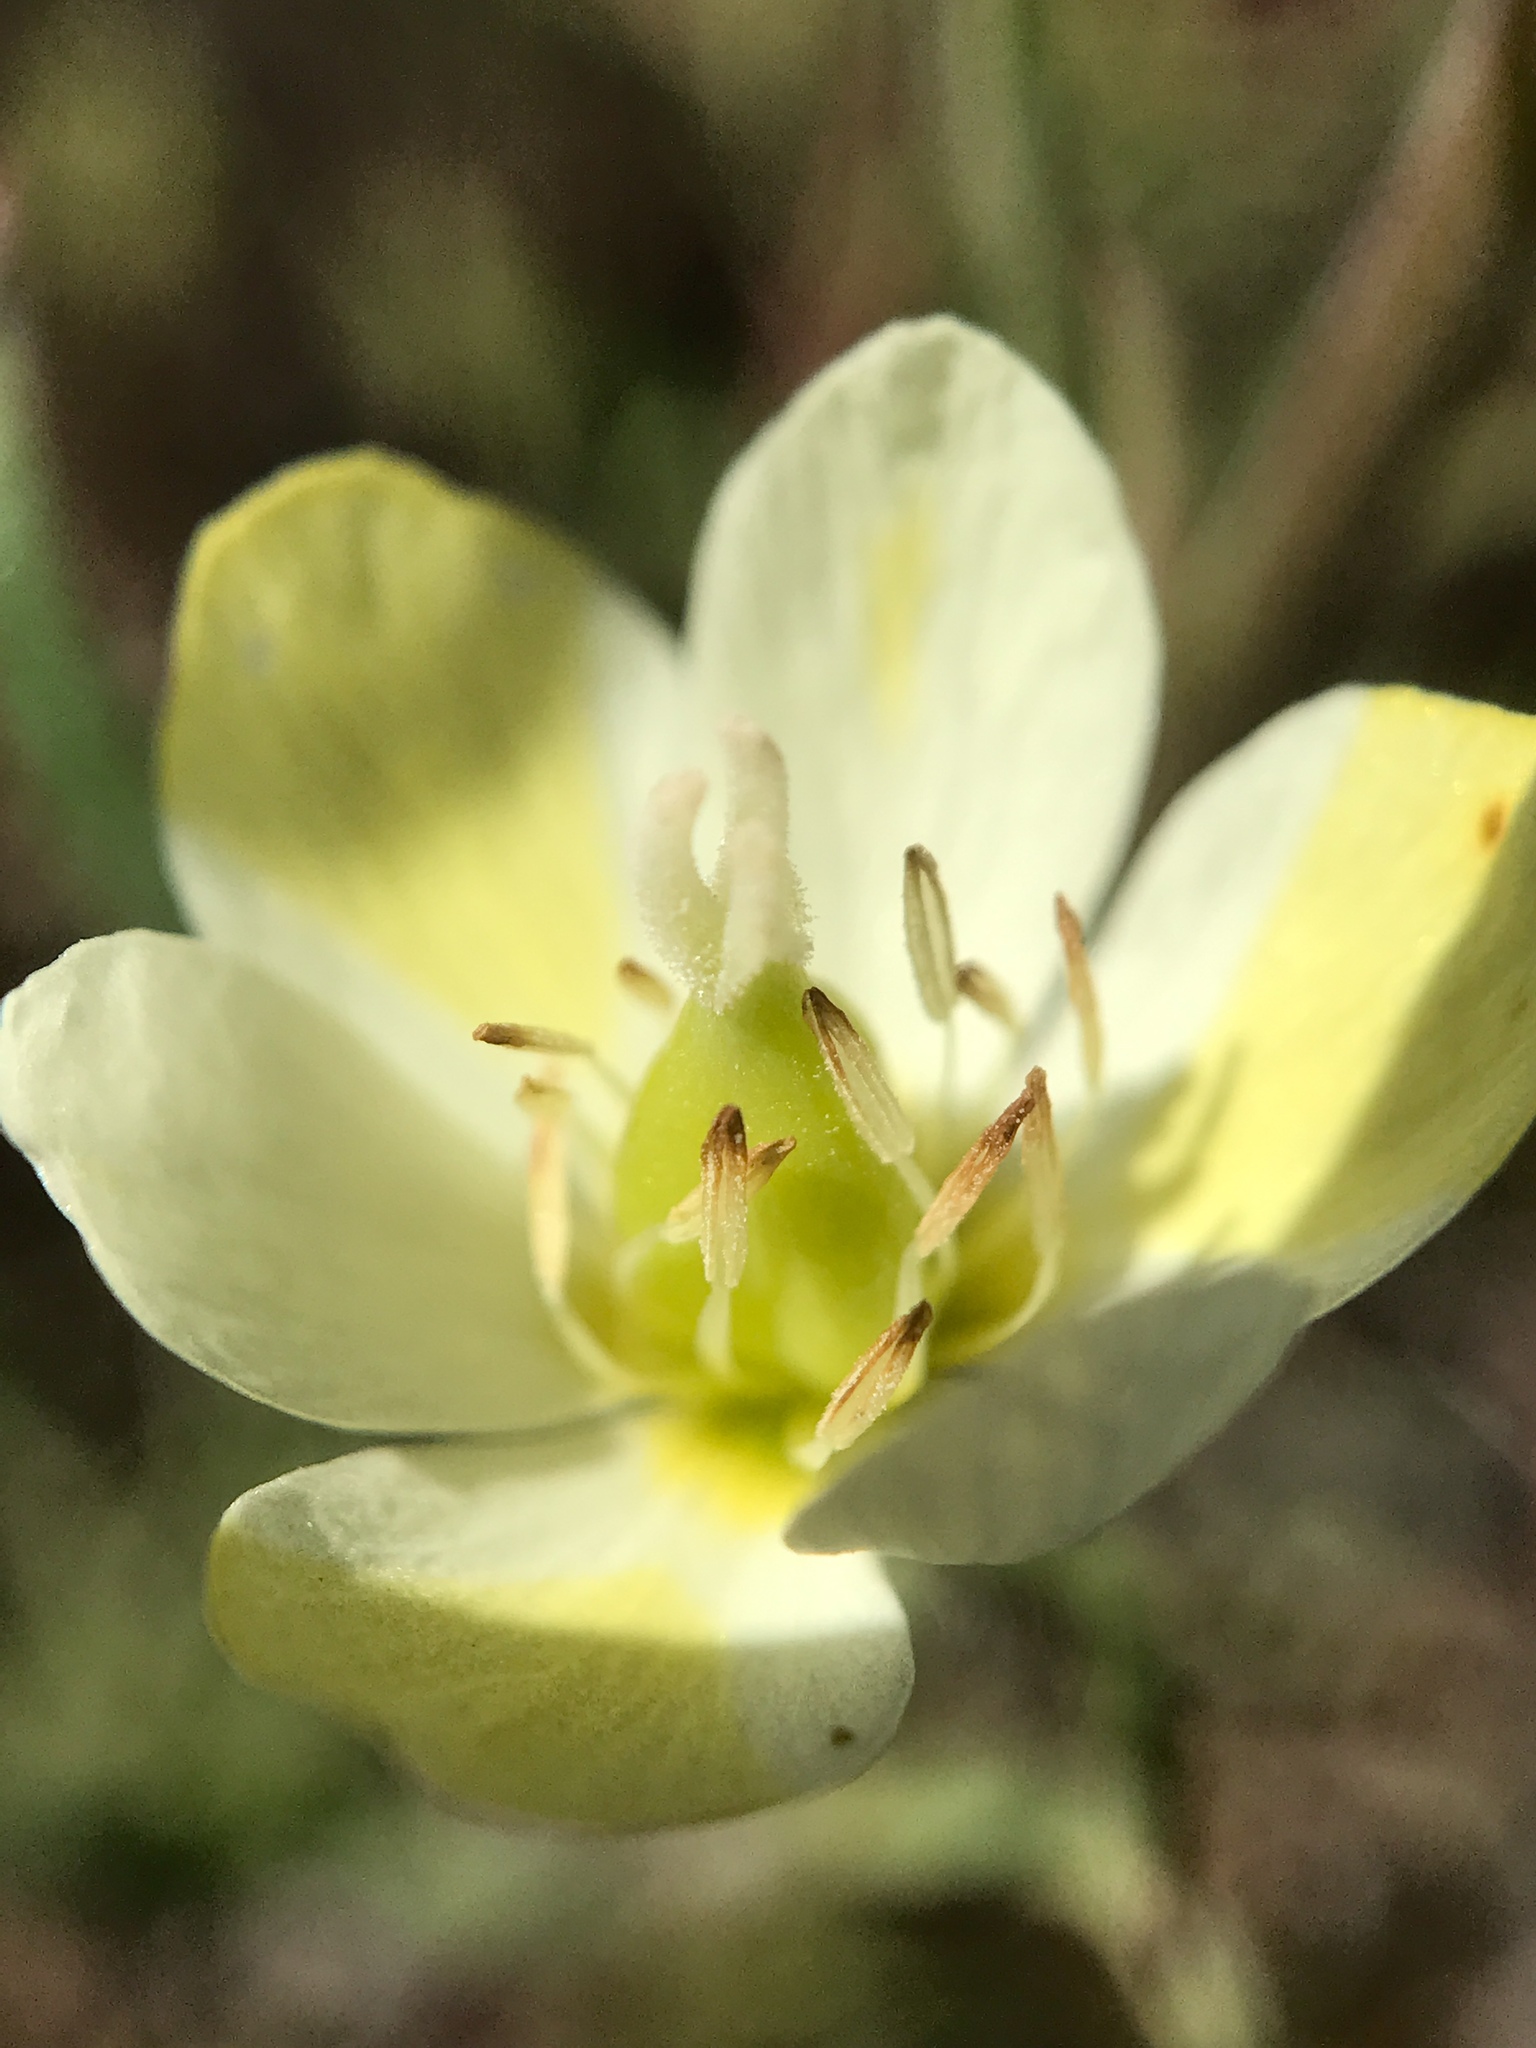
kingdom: Plantae
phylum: Tracheophyta
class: Magnoliopsida
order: Ranunculales
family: Papaveraceae
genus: Platystigma
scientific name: Platystigma lineare
